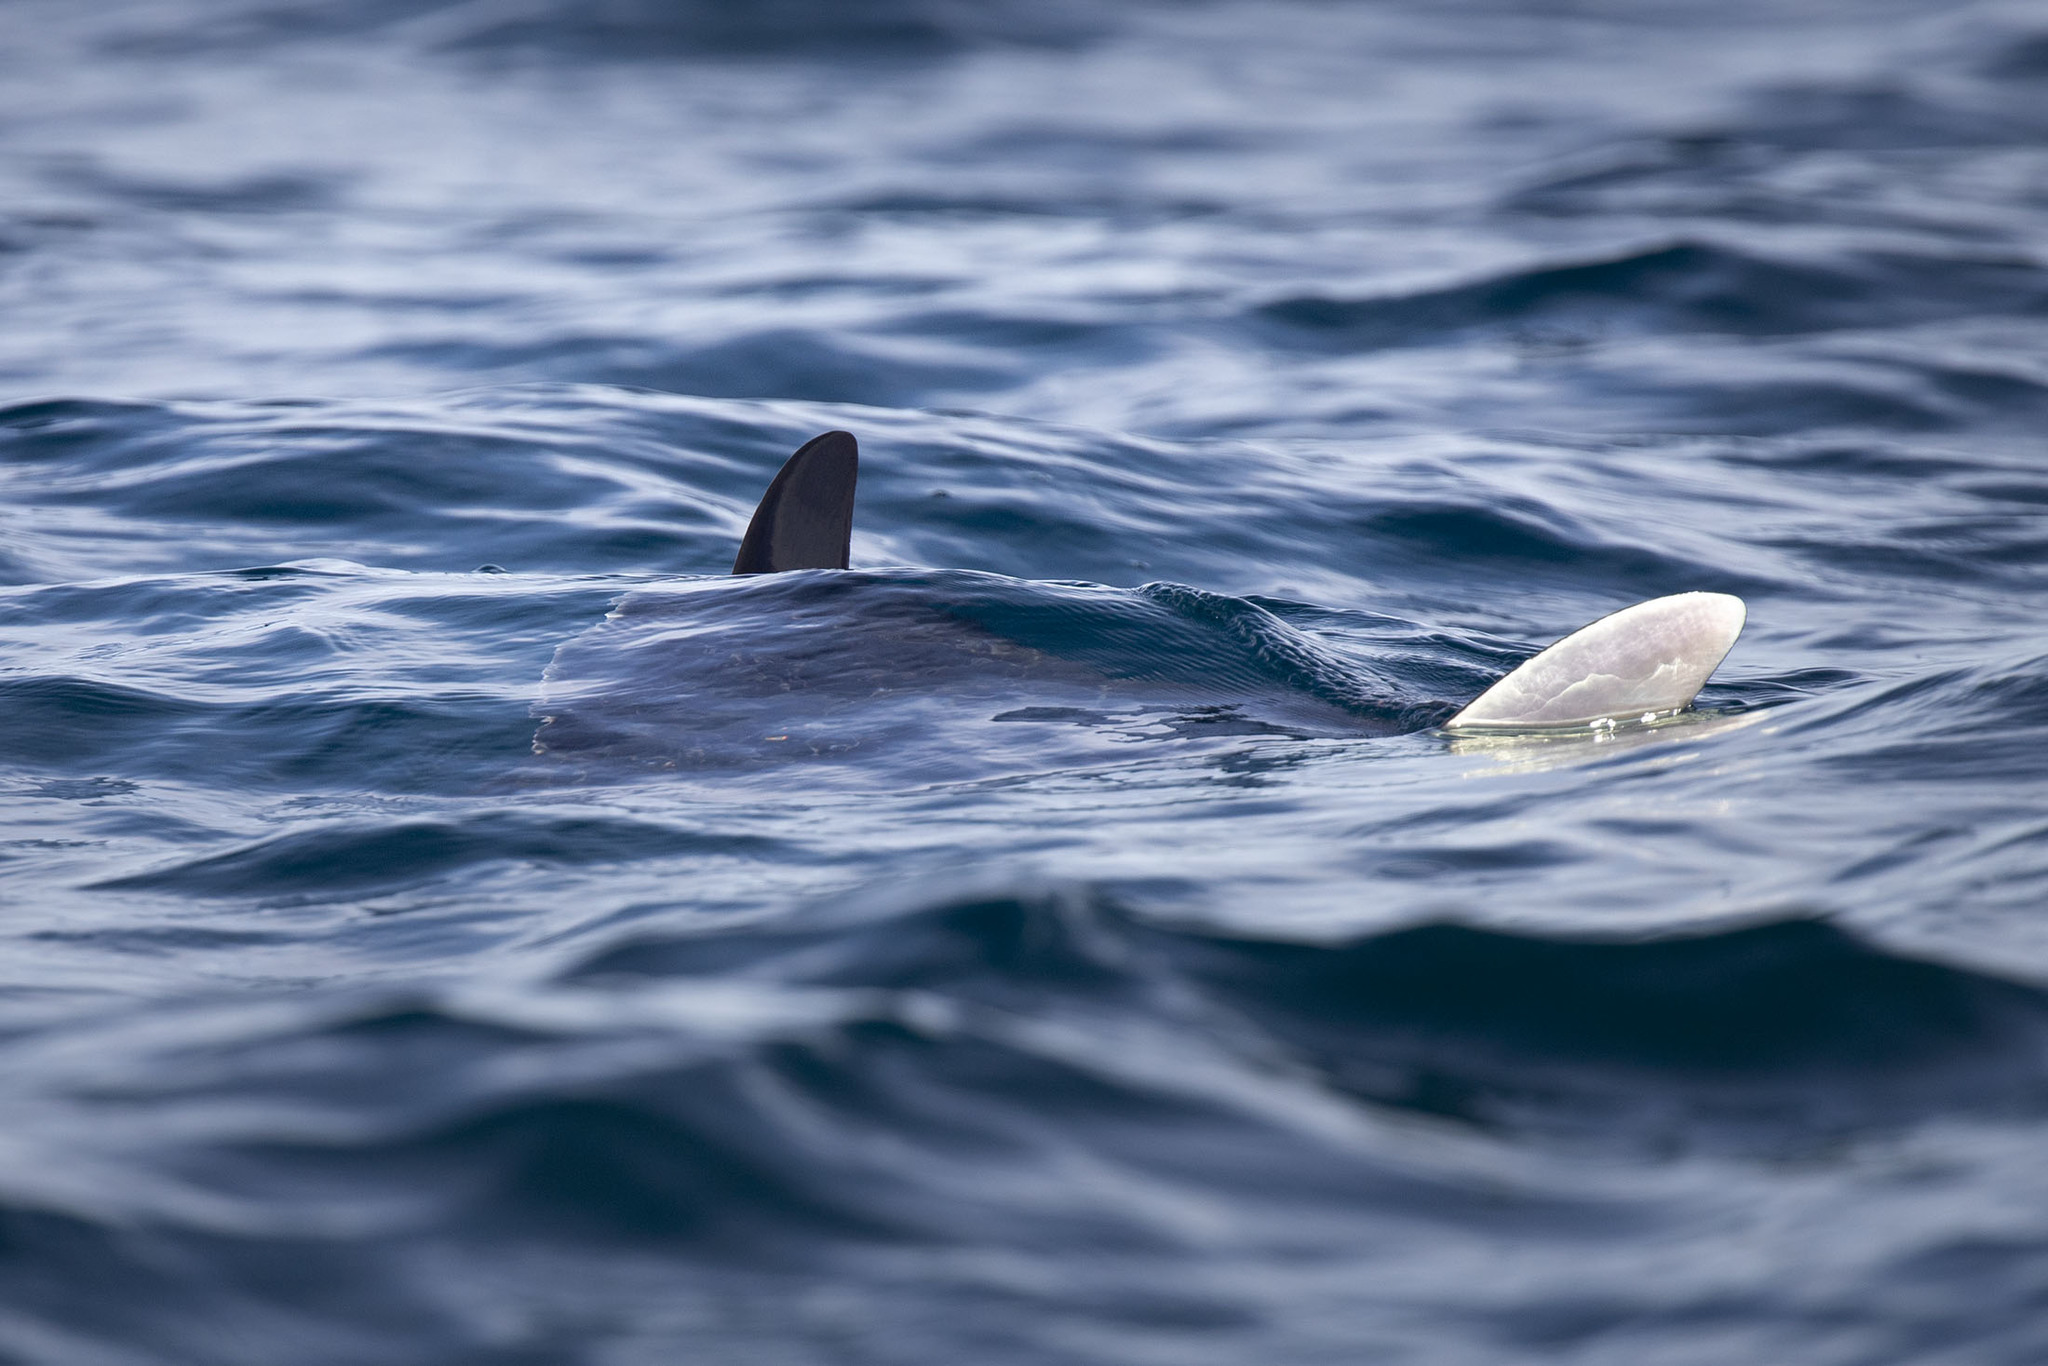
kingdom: Animalia
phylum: Chordata
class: Elasmobranchii
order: Myliobatiformes
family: Myliobatidae
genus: Mobula
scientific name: Mobula
